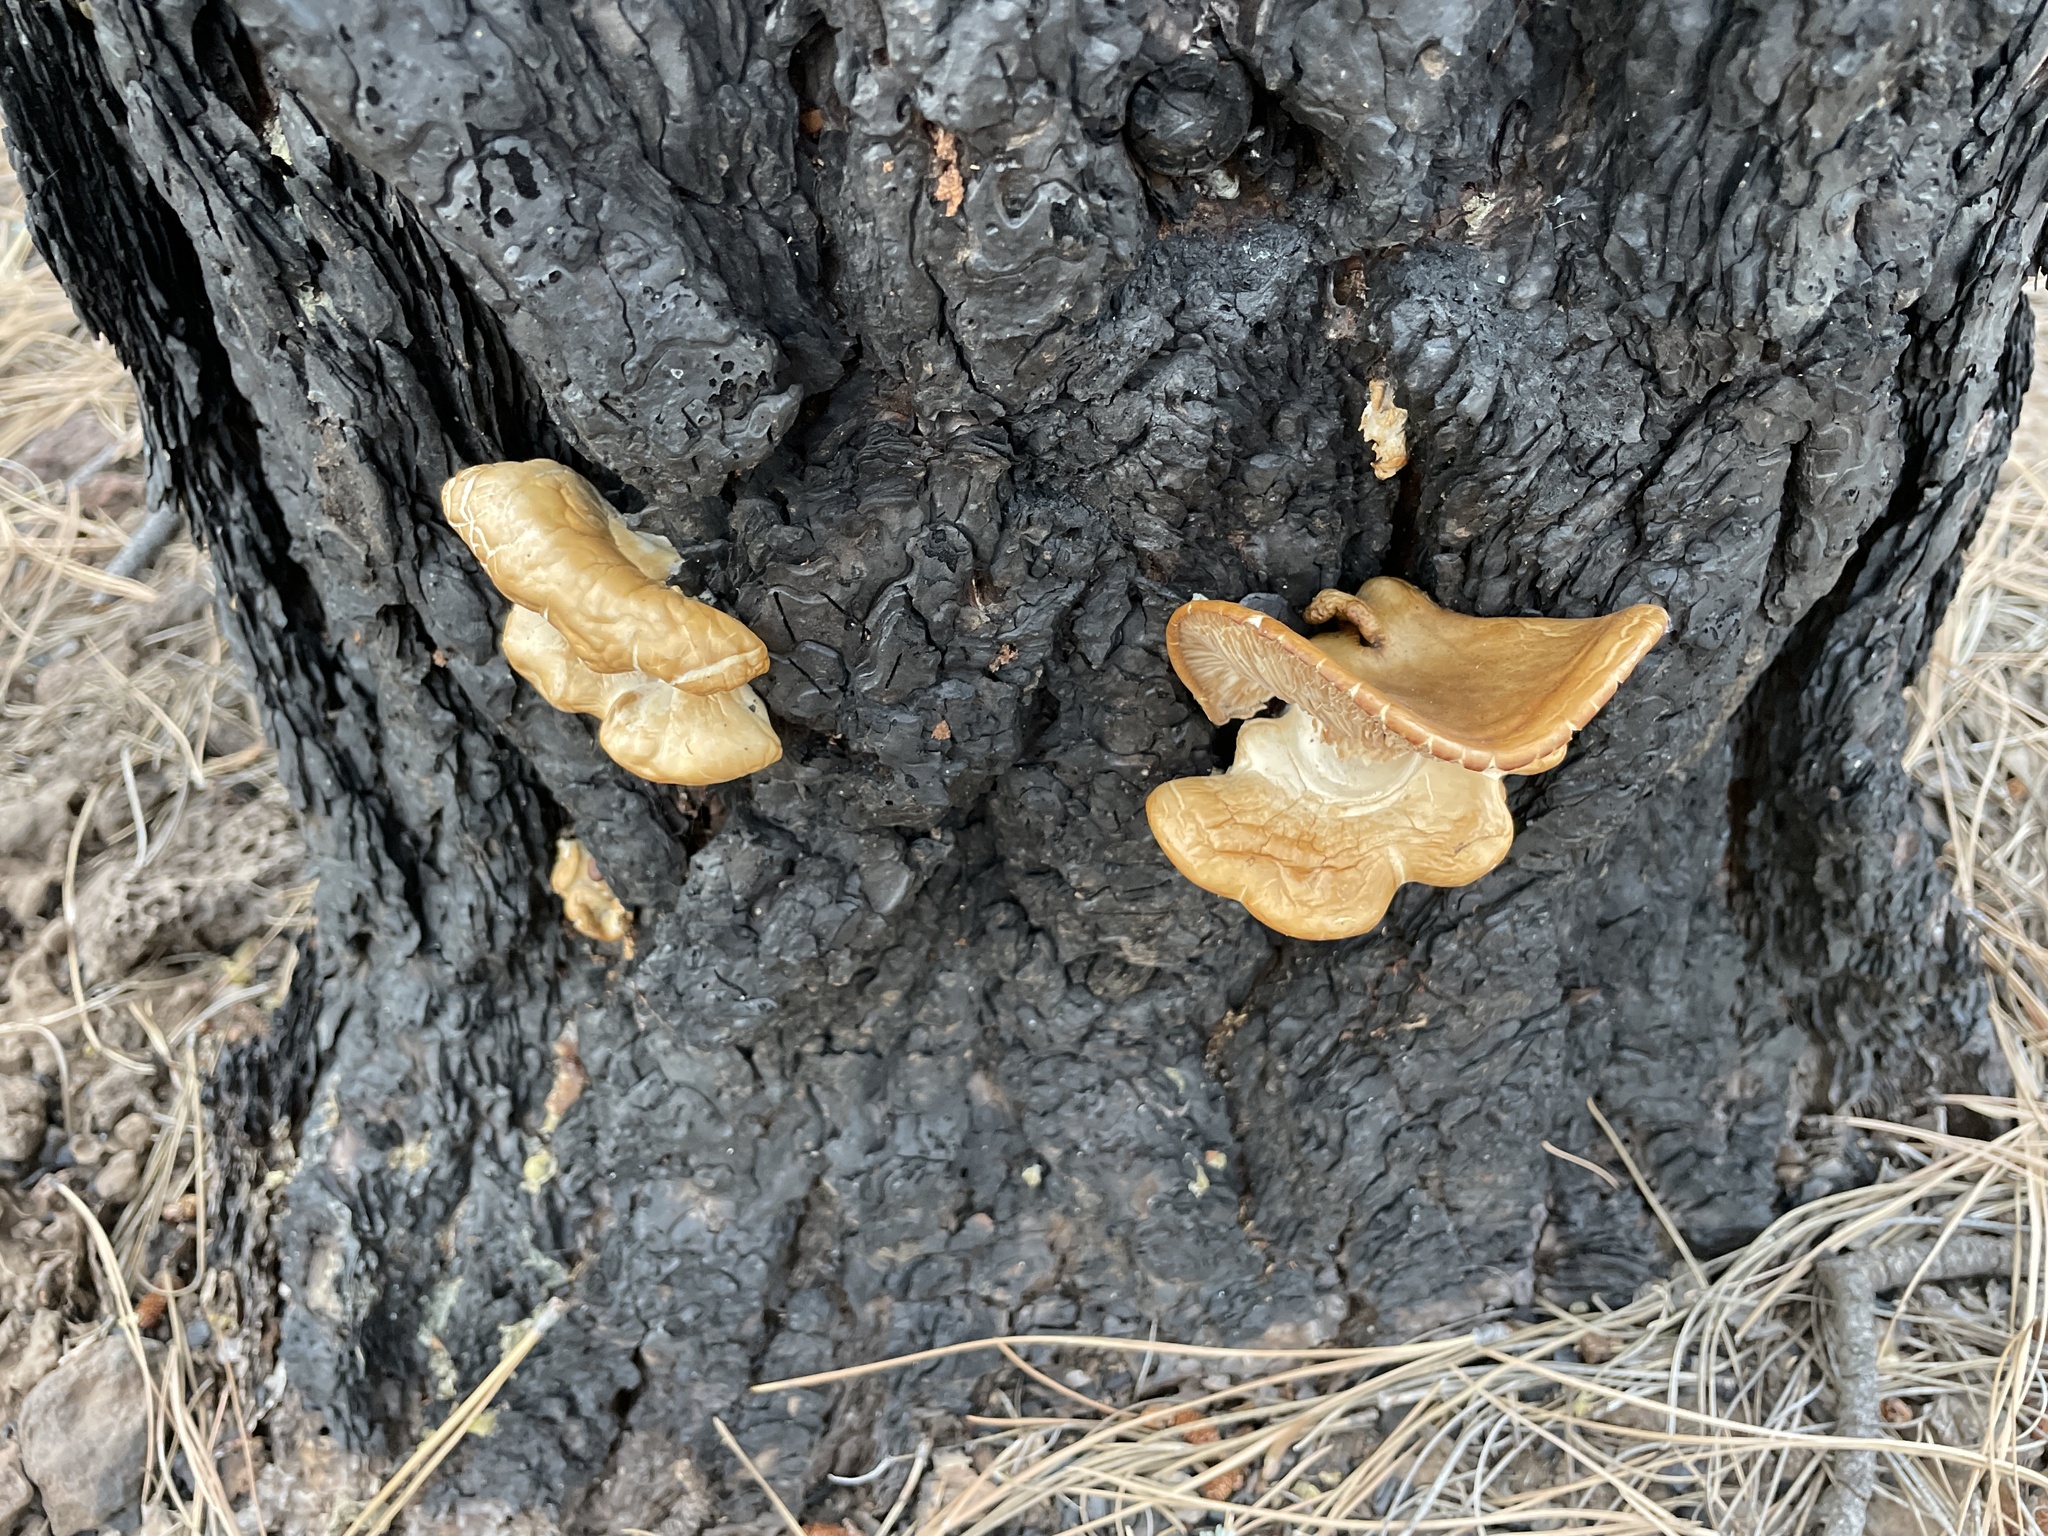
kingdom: Fungi
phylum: Basidiomycota
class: Agaricomycetes
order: Agaricales
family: Pleurotaceae
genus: Pleurotus
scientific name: Pleurotus pulmonarius
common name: Pale oyster
